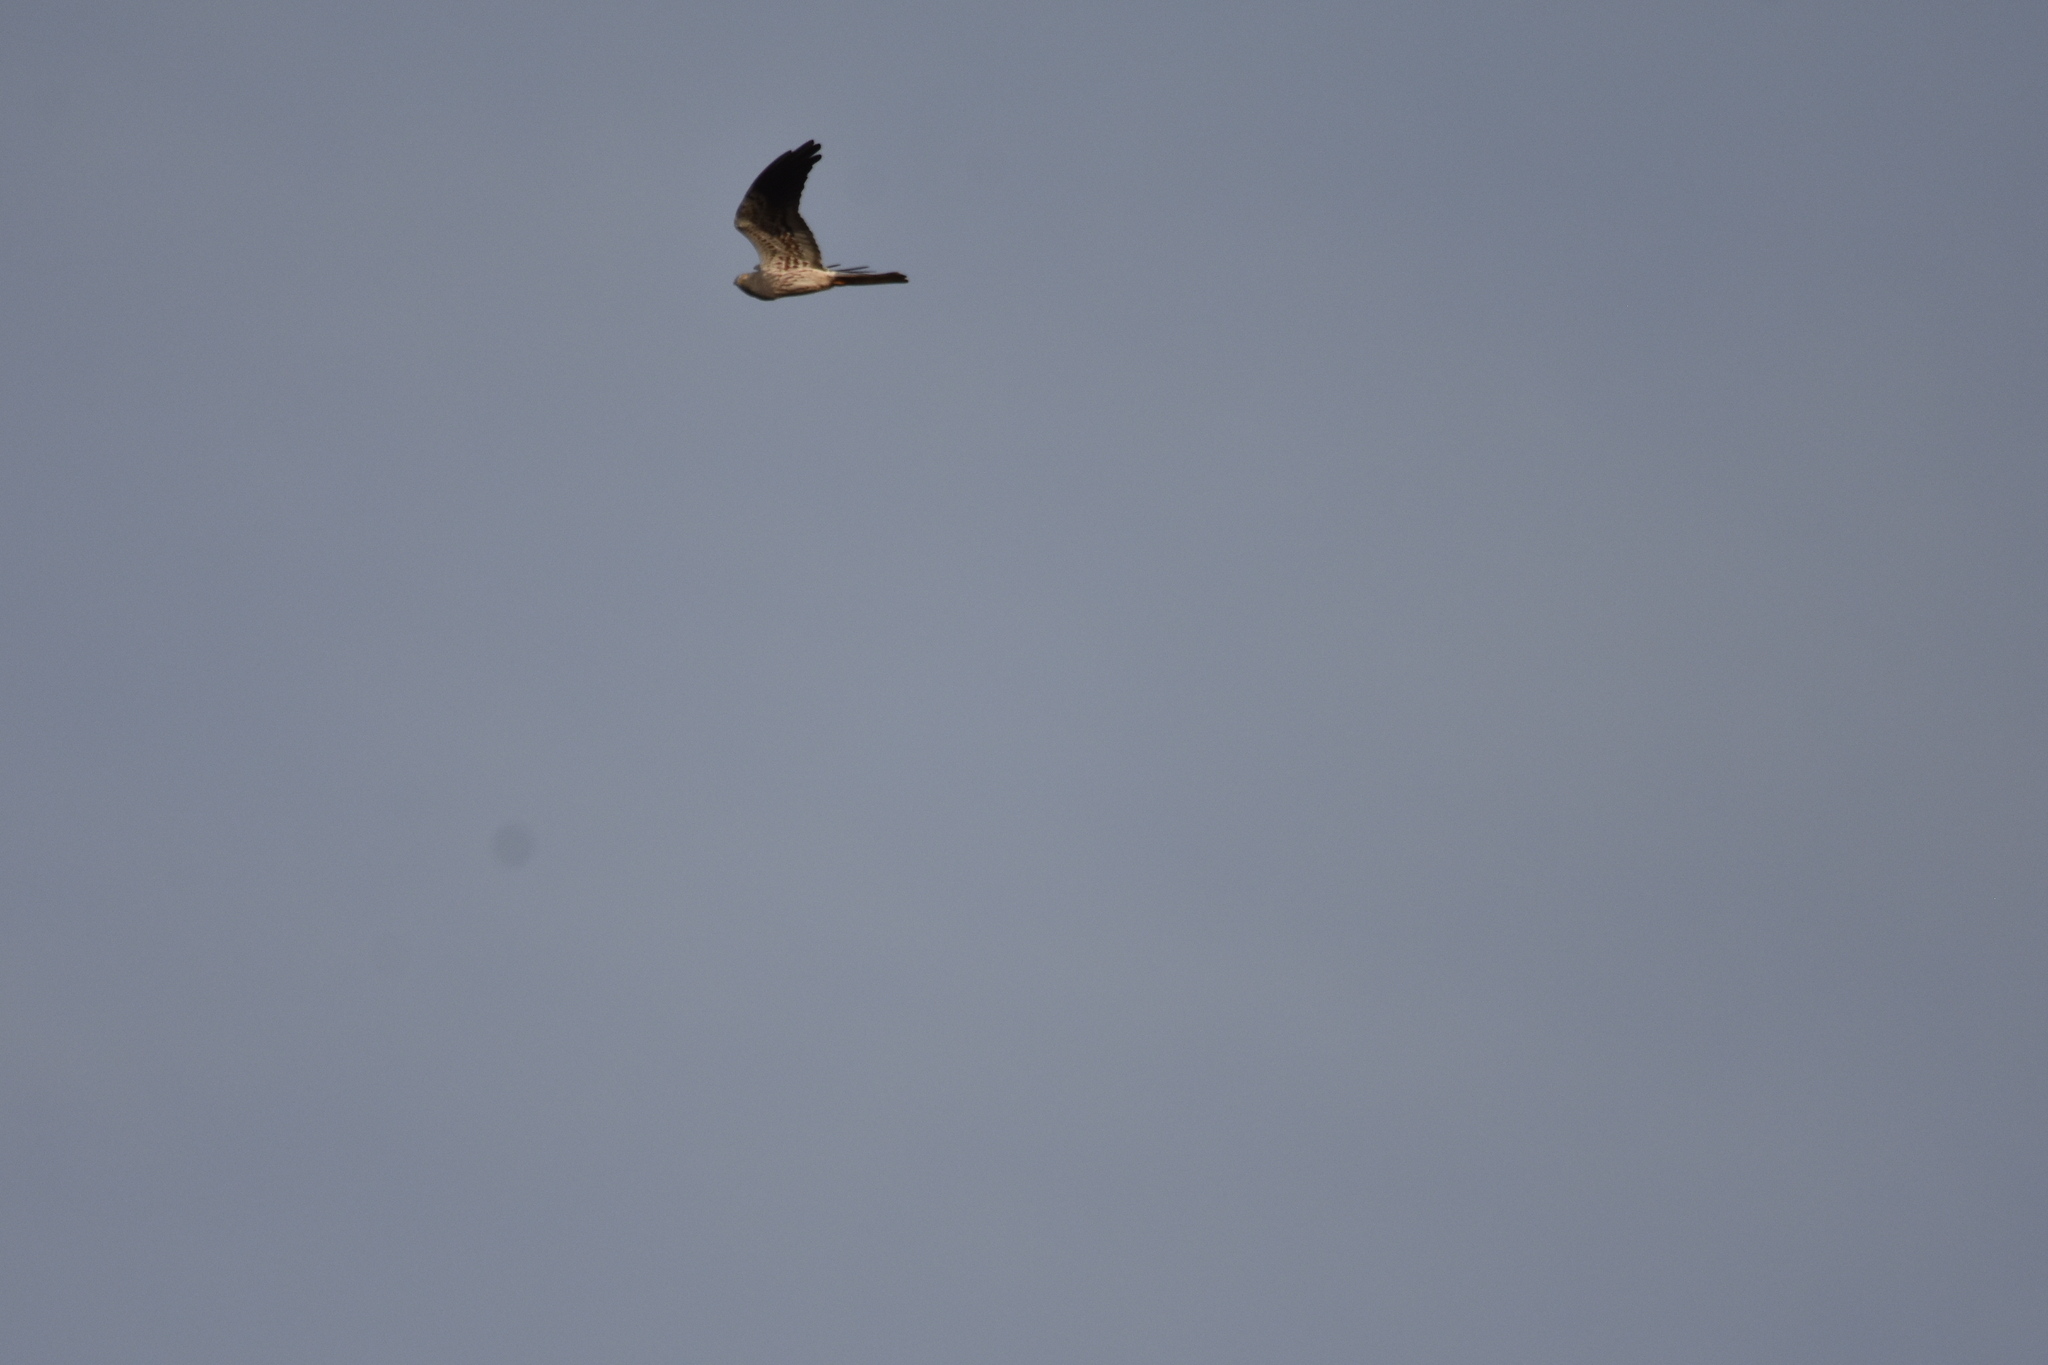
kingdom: Animalia
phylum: Chordata
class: Aves
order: Accipitriformes
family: Accipitridae
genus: Circus
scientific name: Circus pygargus
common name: Montagu's harrier
